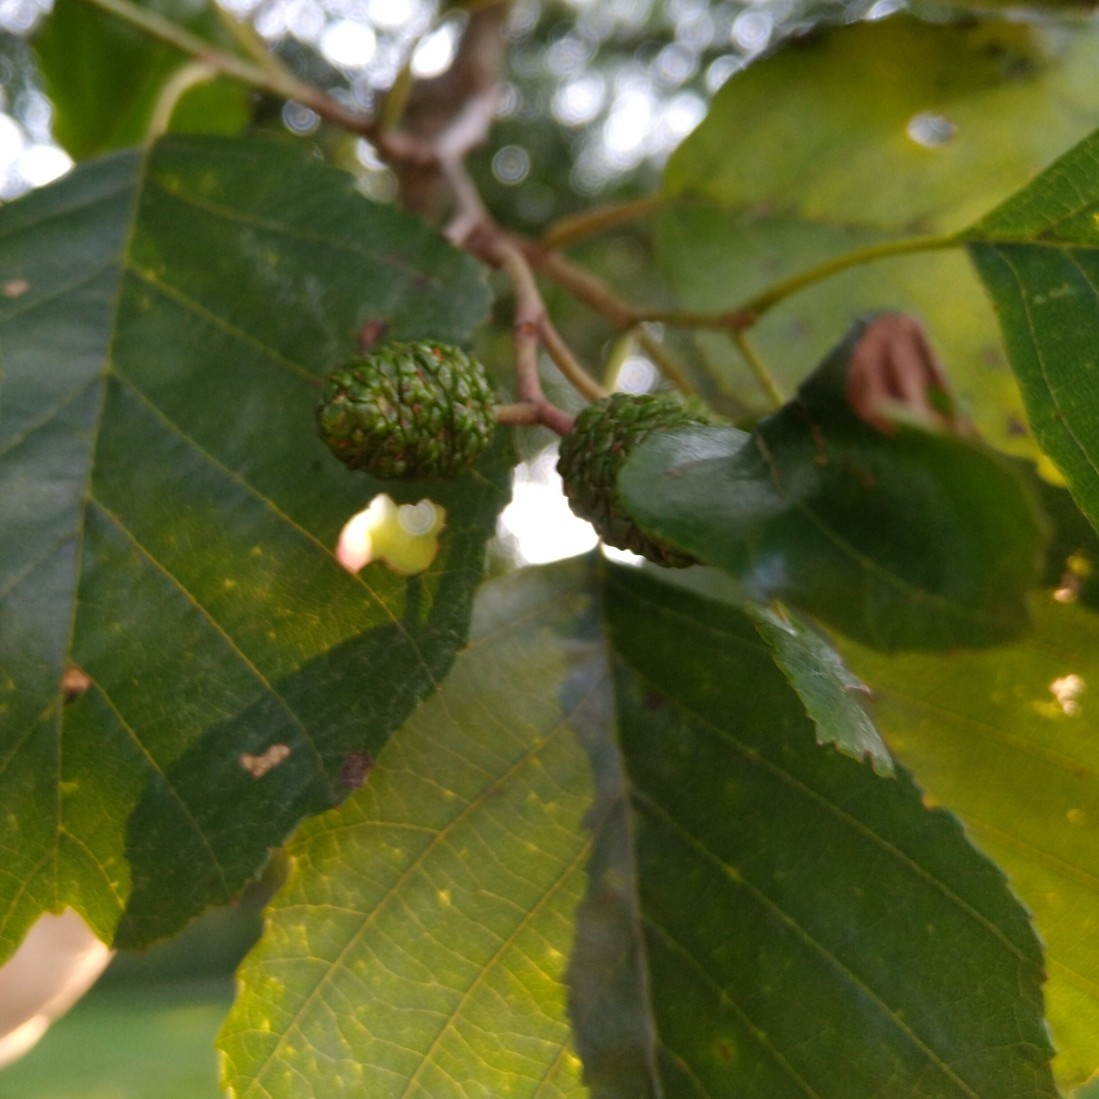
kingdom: Plantae
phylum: Tracheophyta
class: Magnoliopsida
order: Fagales
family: Betulaceae
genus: Alnus
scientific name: Alnus glutinosa
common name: Black alder
